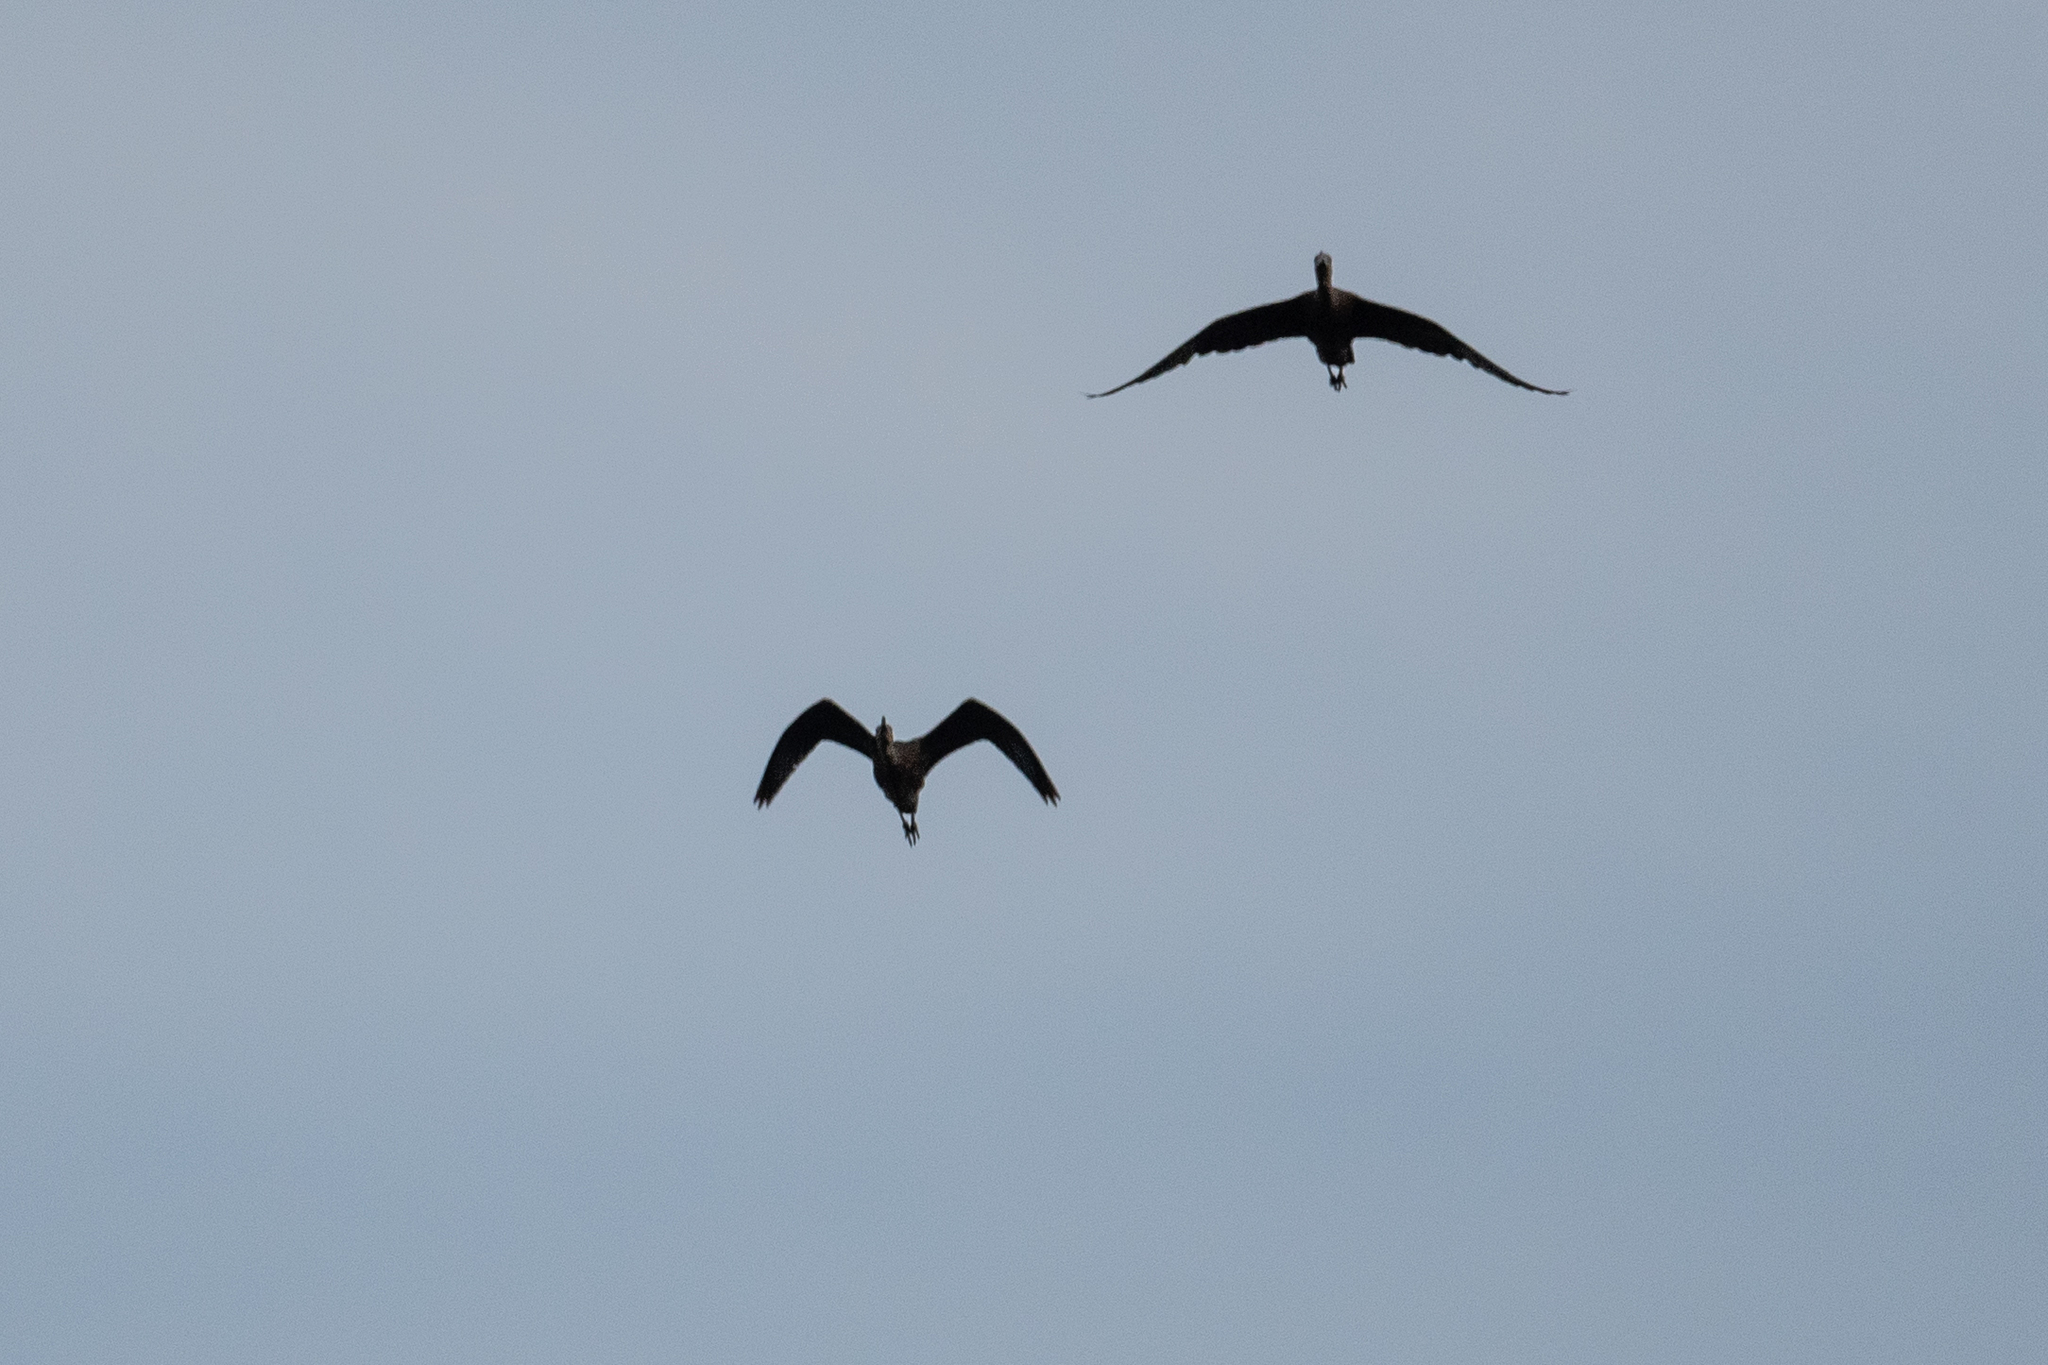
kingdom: Animalia
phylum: Chordata
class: Aves
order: Pelecaniformes
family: Threskiornithidae
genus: Plegadis
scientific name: Plegadis chihi
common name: White-faced ibis
